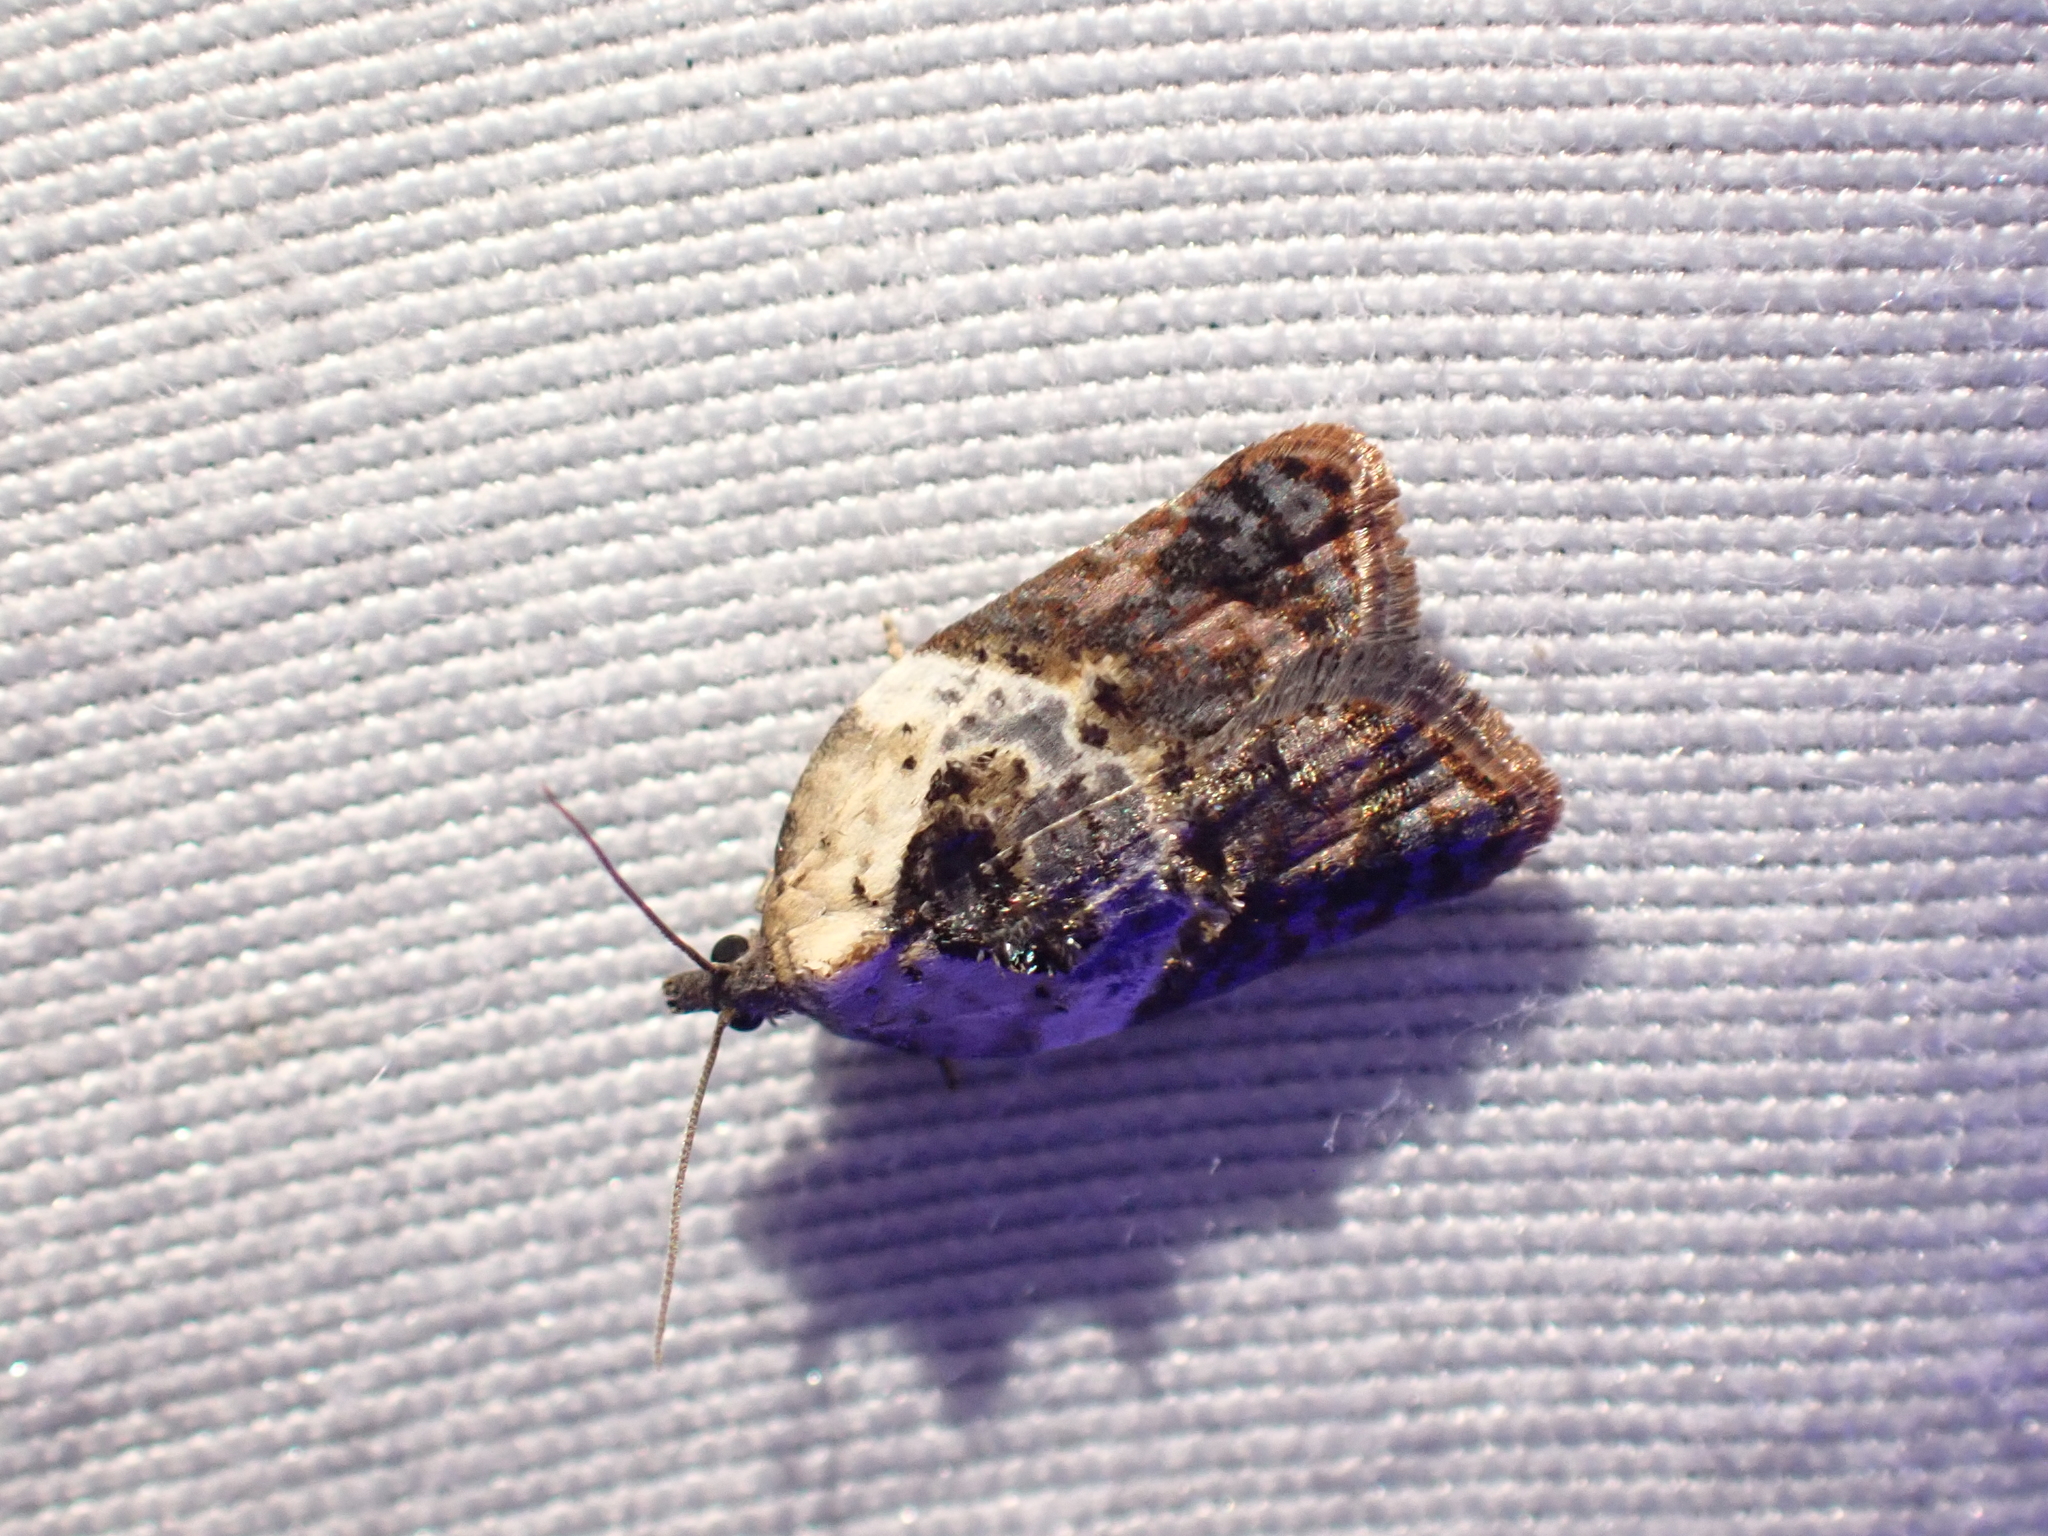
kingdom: Animalia
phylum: Arthropoda
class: Insecta
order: Lepidoptera
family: Tortricidae
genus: Acleris
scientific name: Acleris variegana
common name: Garden rose tortrix
